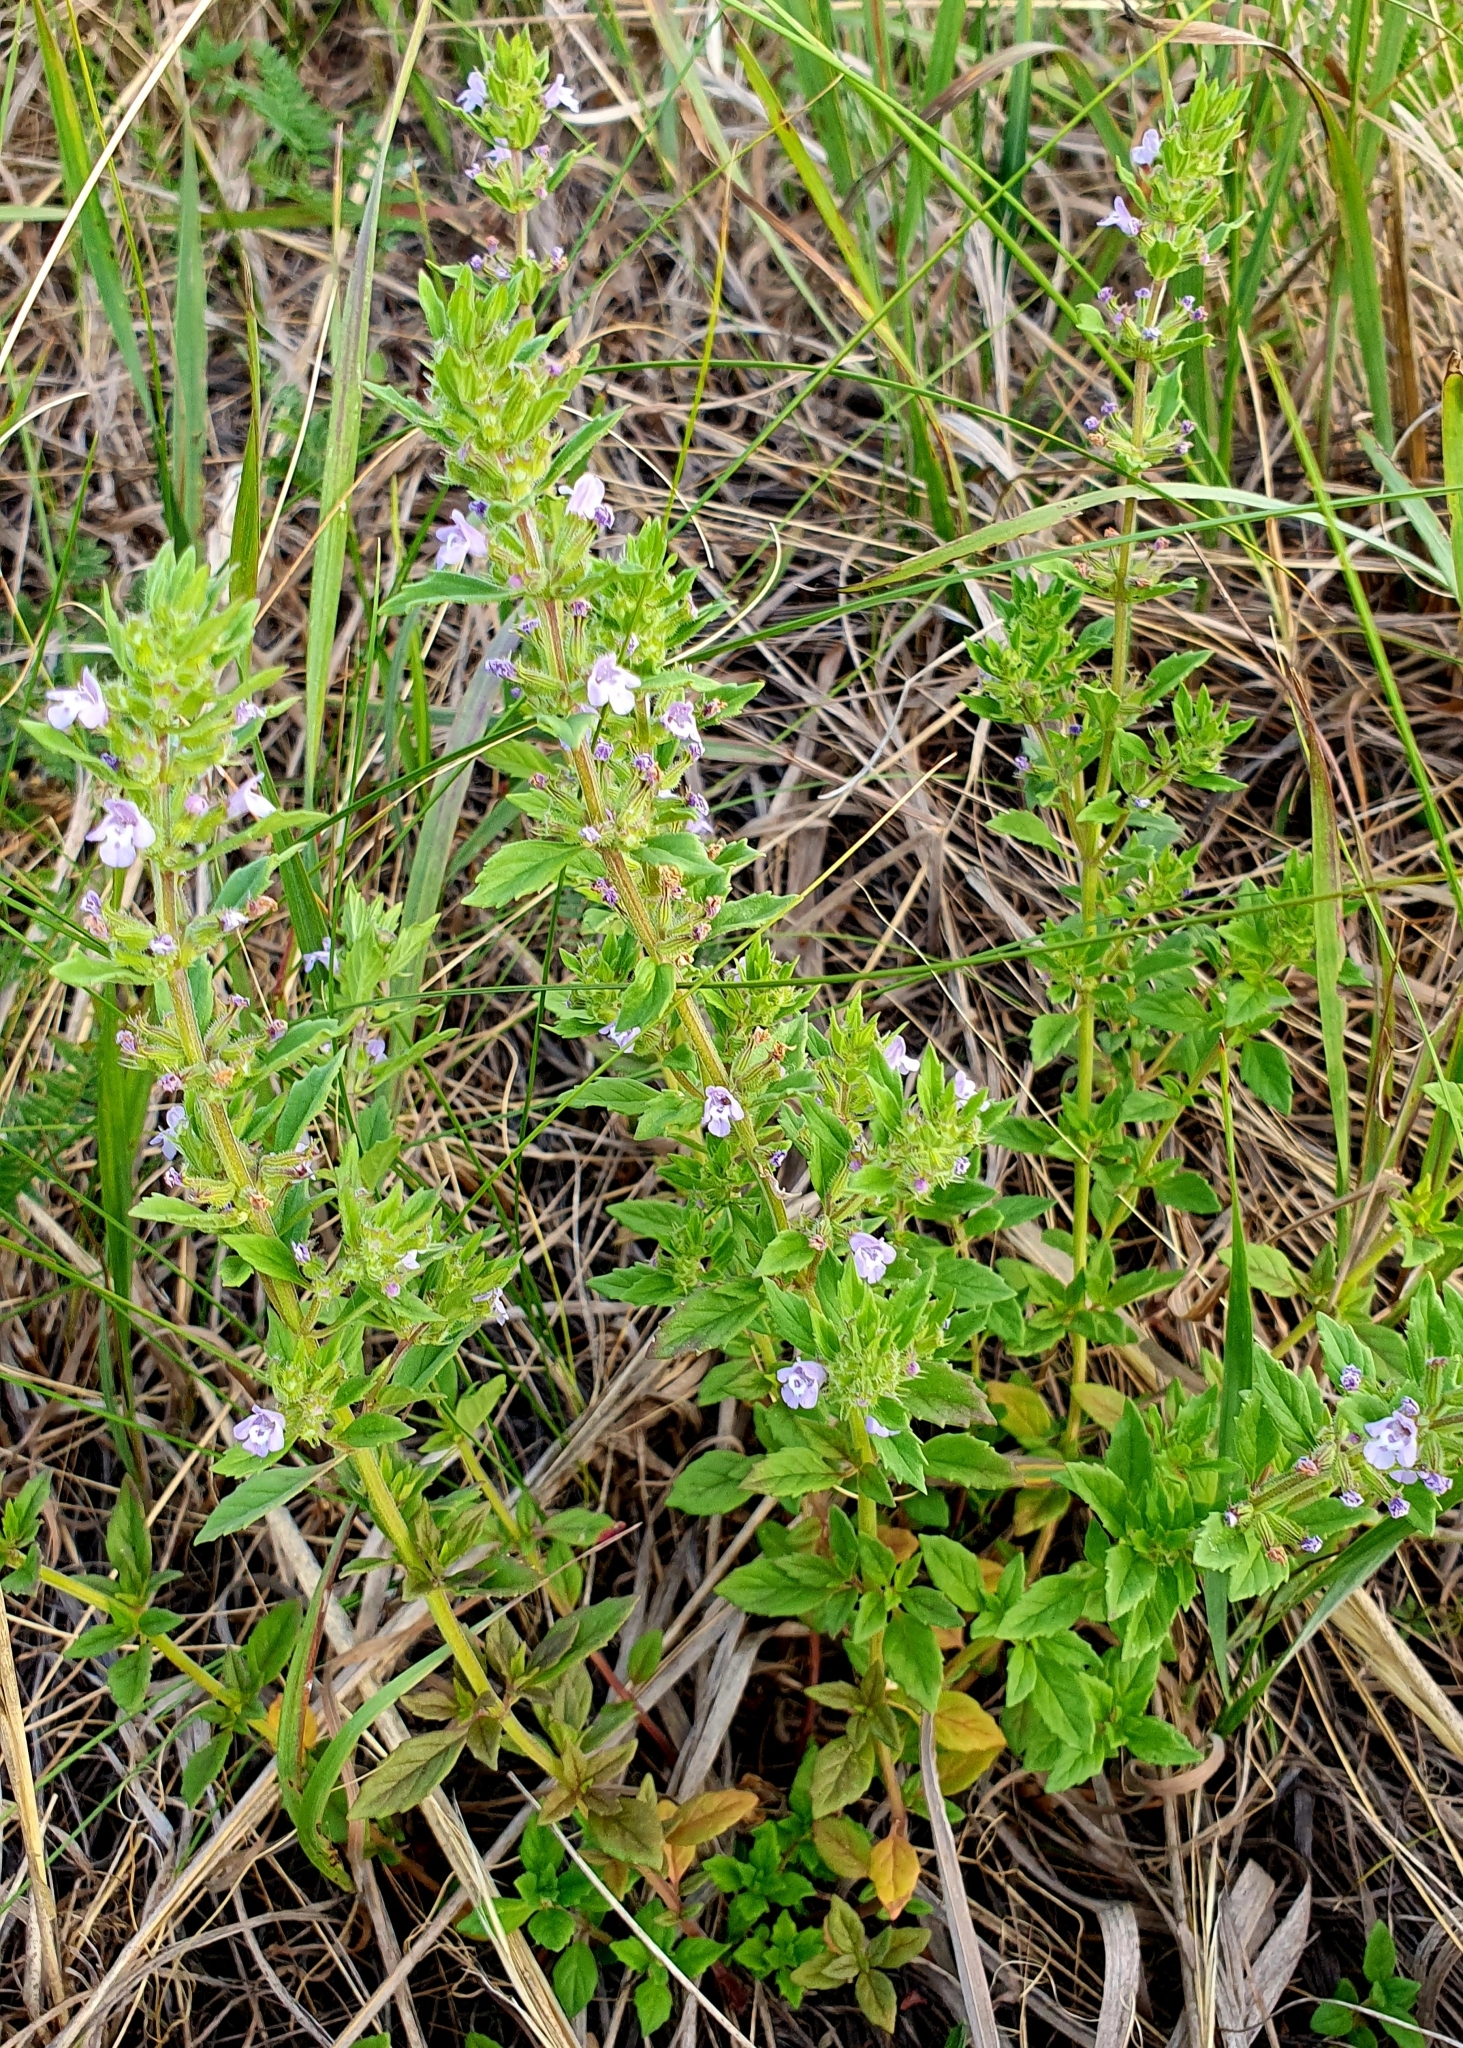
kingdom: Plantae
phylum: Tracheophyta
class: Magnoliopsida
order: Lamiales
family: Lamiaceae
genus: Clinopodium
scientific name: Clinopodium acinos
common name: Basil thyme
